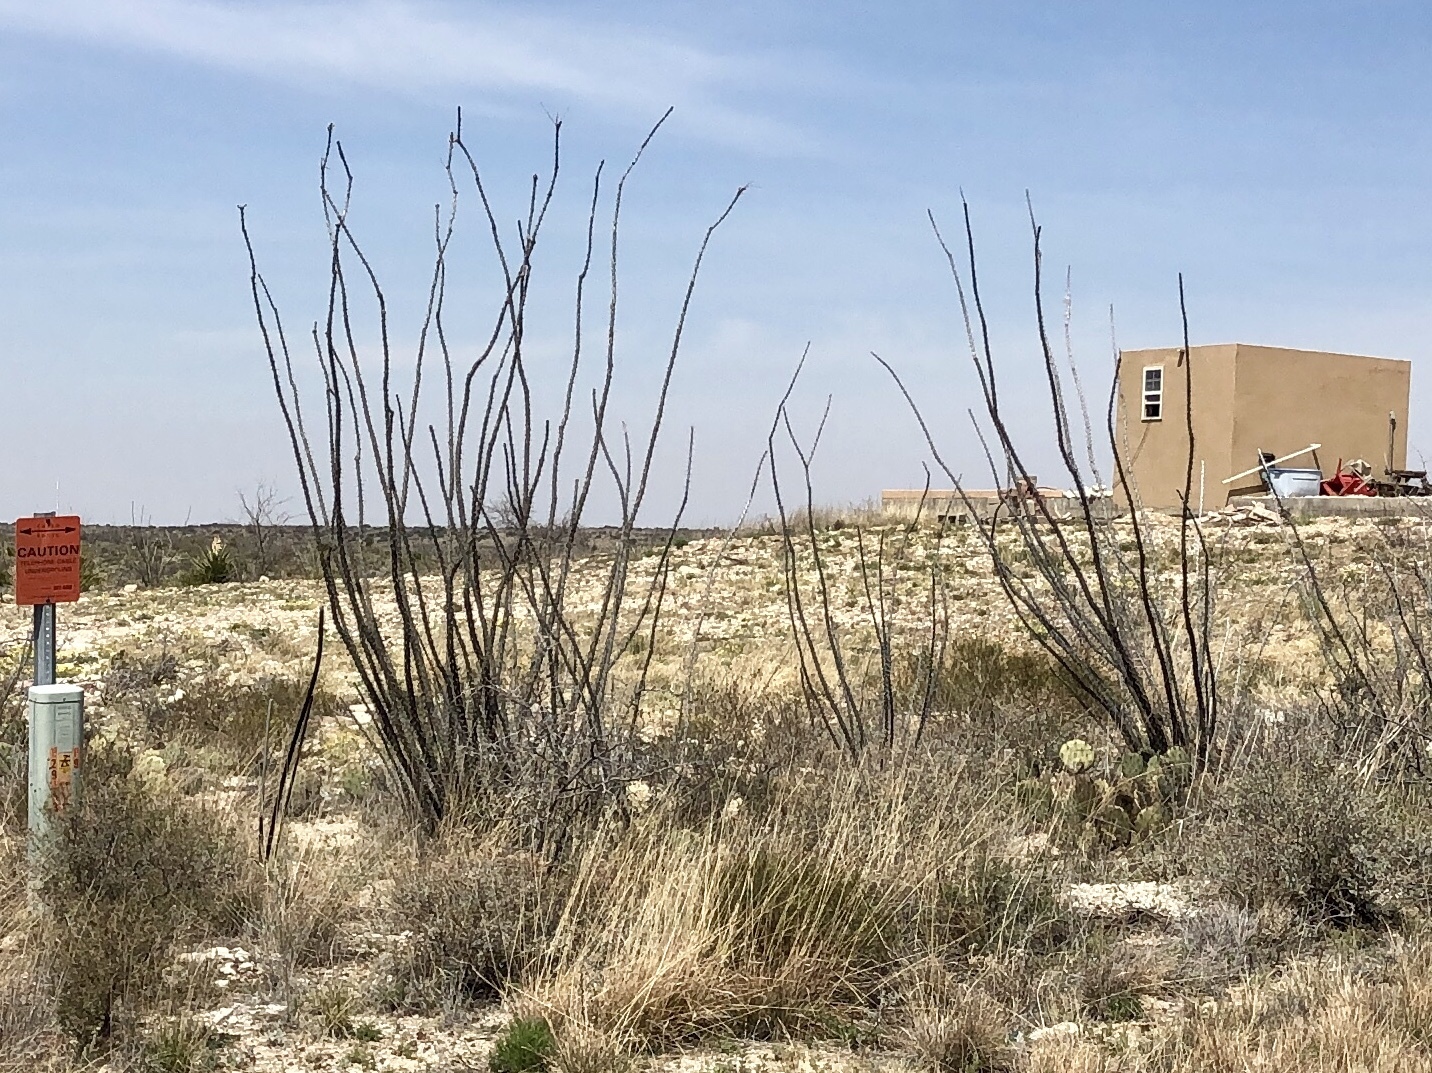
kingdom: Plantae
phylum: Tracheophyta
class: Magnoliopsida
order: Ericales
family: Fouquieriaceae
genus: Fouquieria
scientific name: Fouquieria splendens
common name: Vine-cactus
